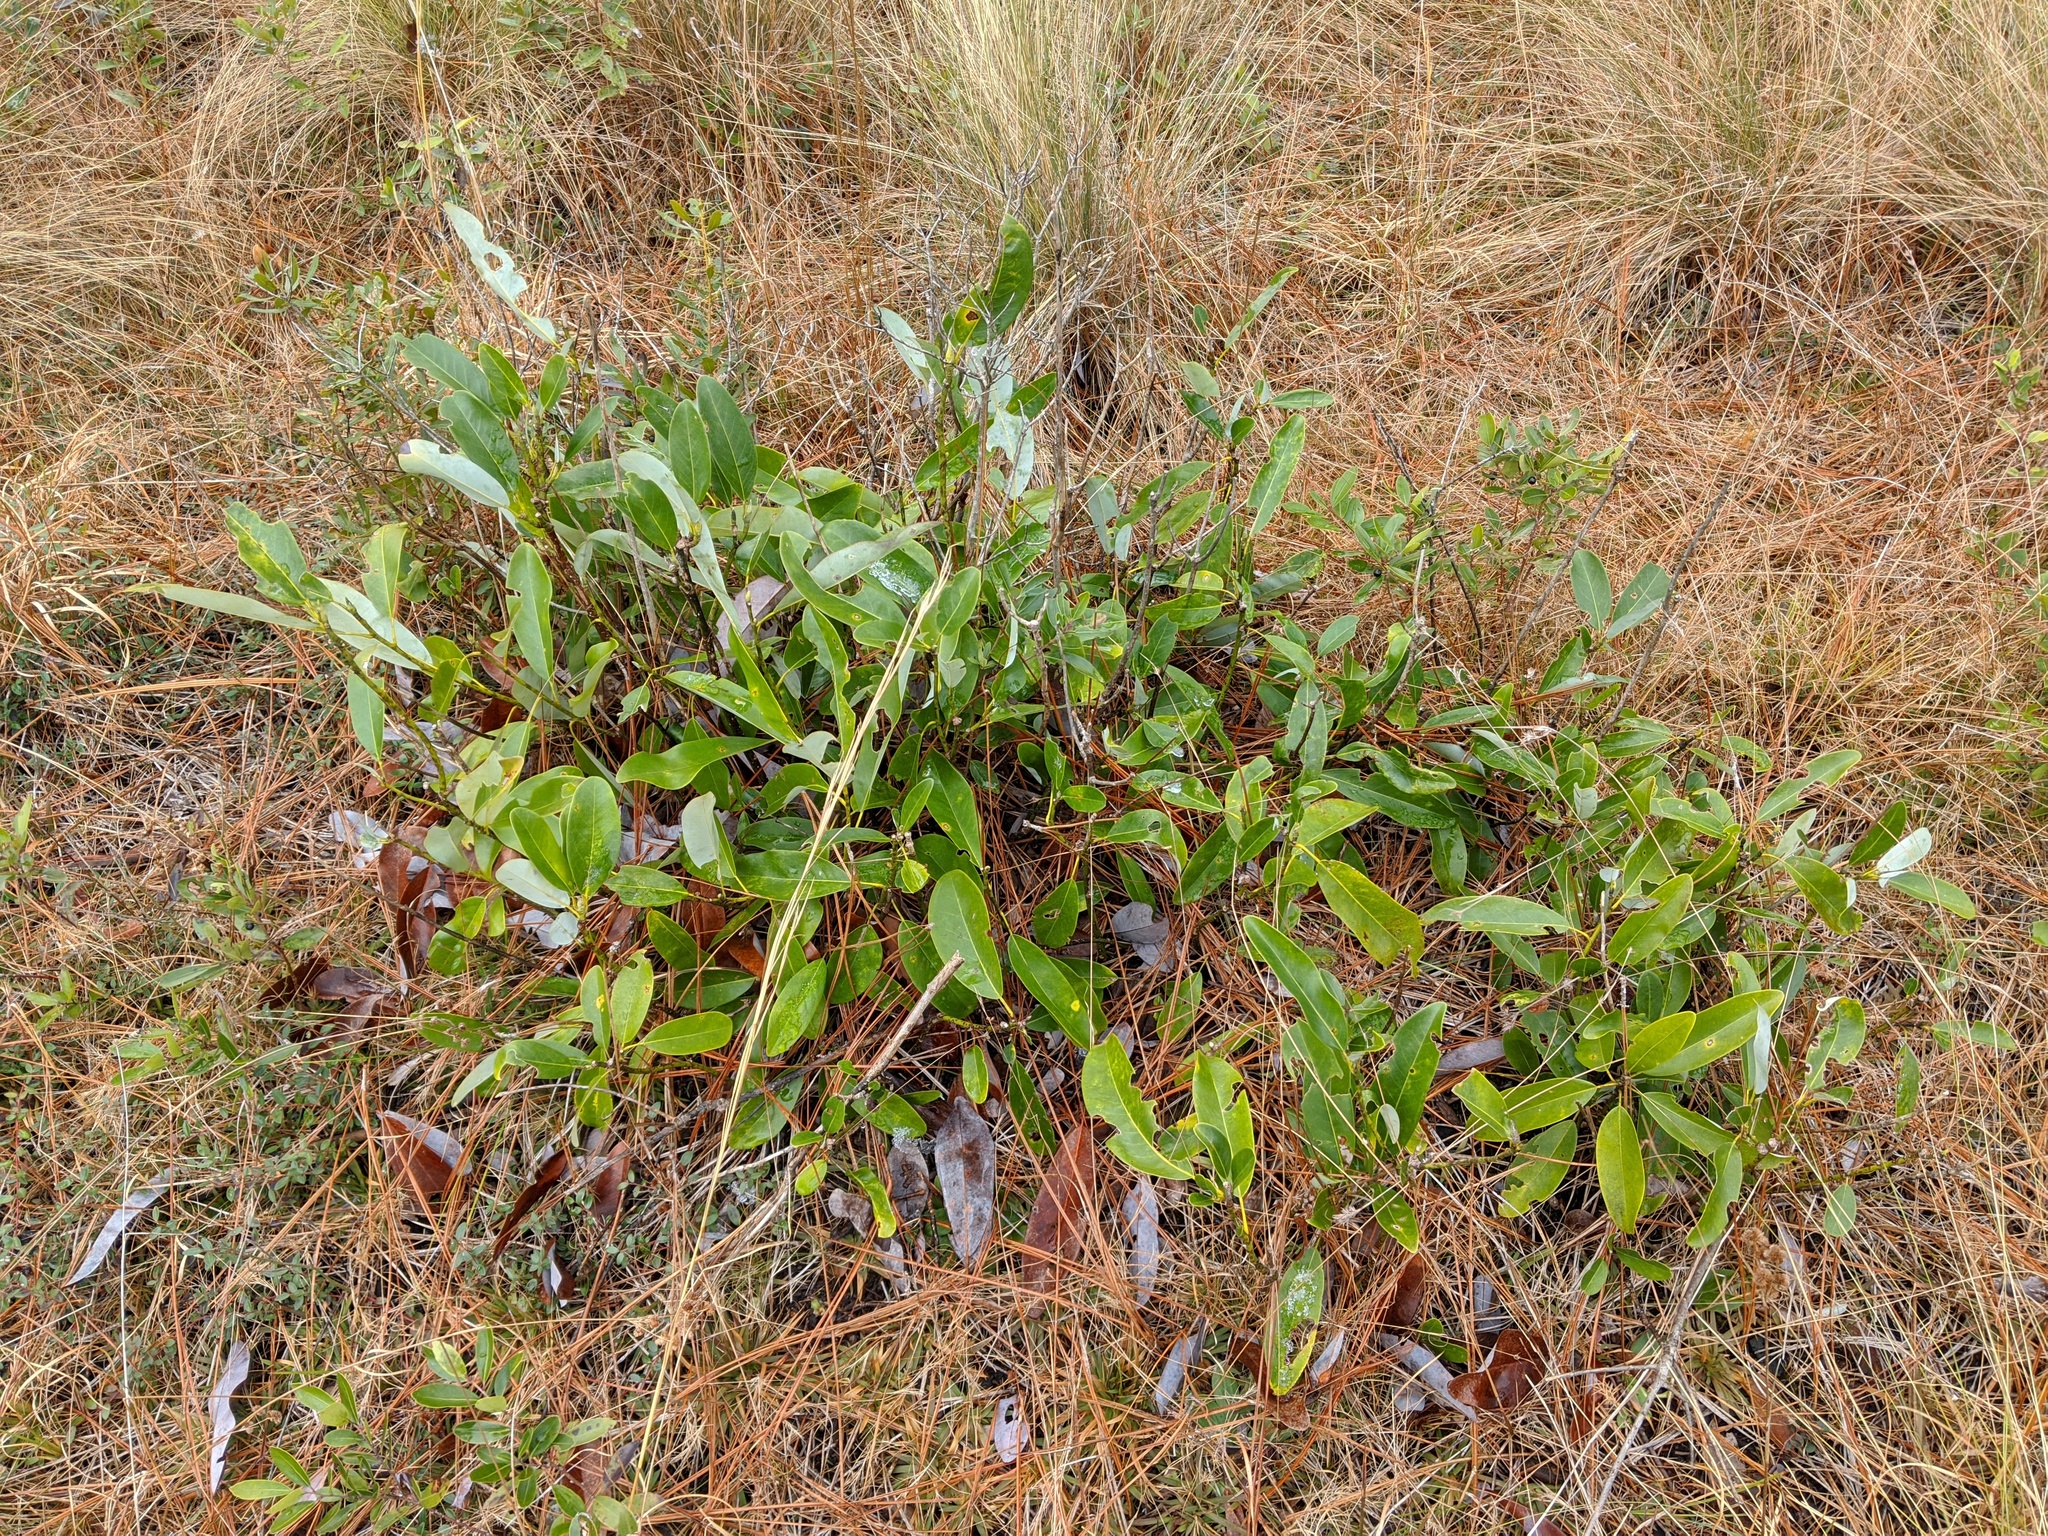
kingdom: Plantae
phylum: Tracheophyta
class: Magnoliopsida
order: Magnoliales
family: Magnoliaceae
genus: Magnolia
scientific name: Magnolia virginiana
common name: Swamp bay
